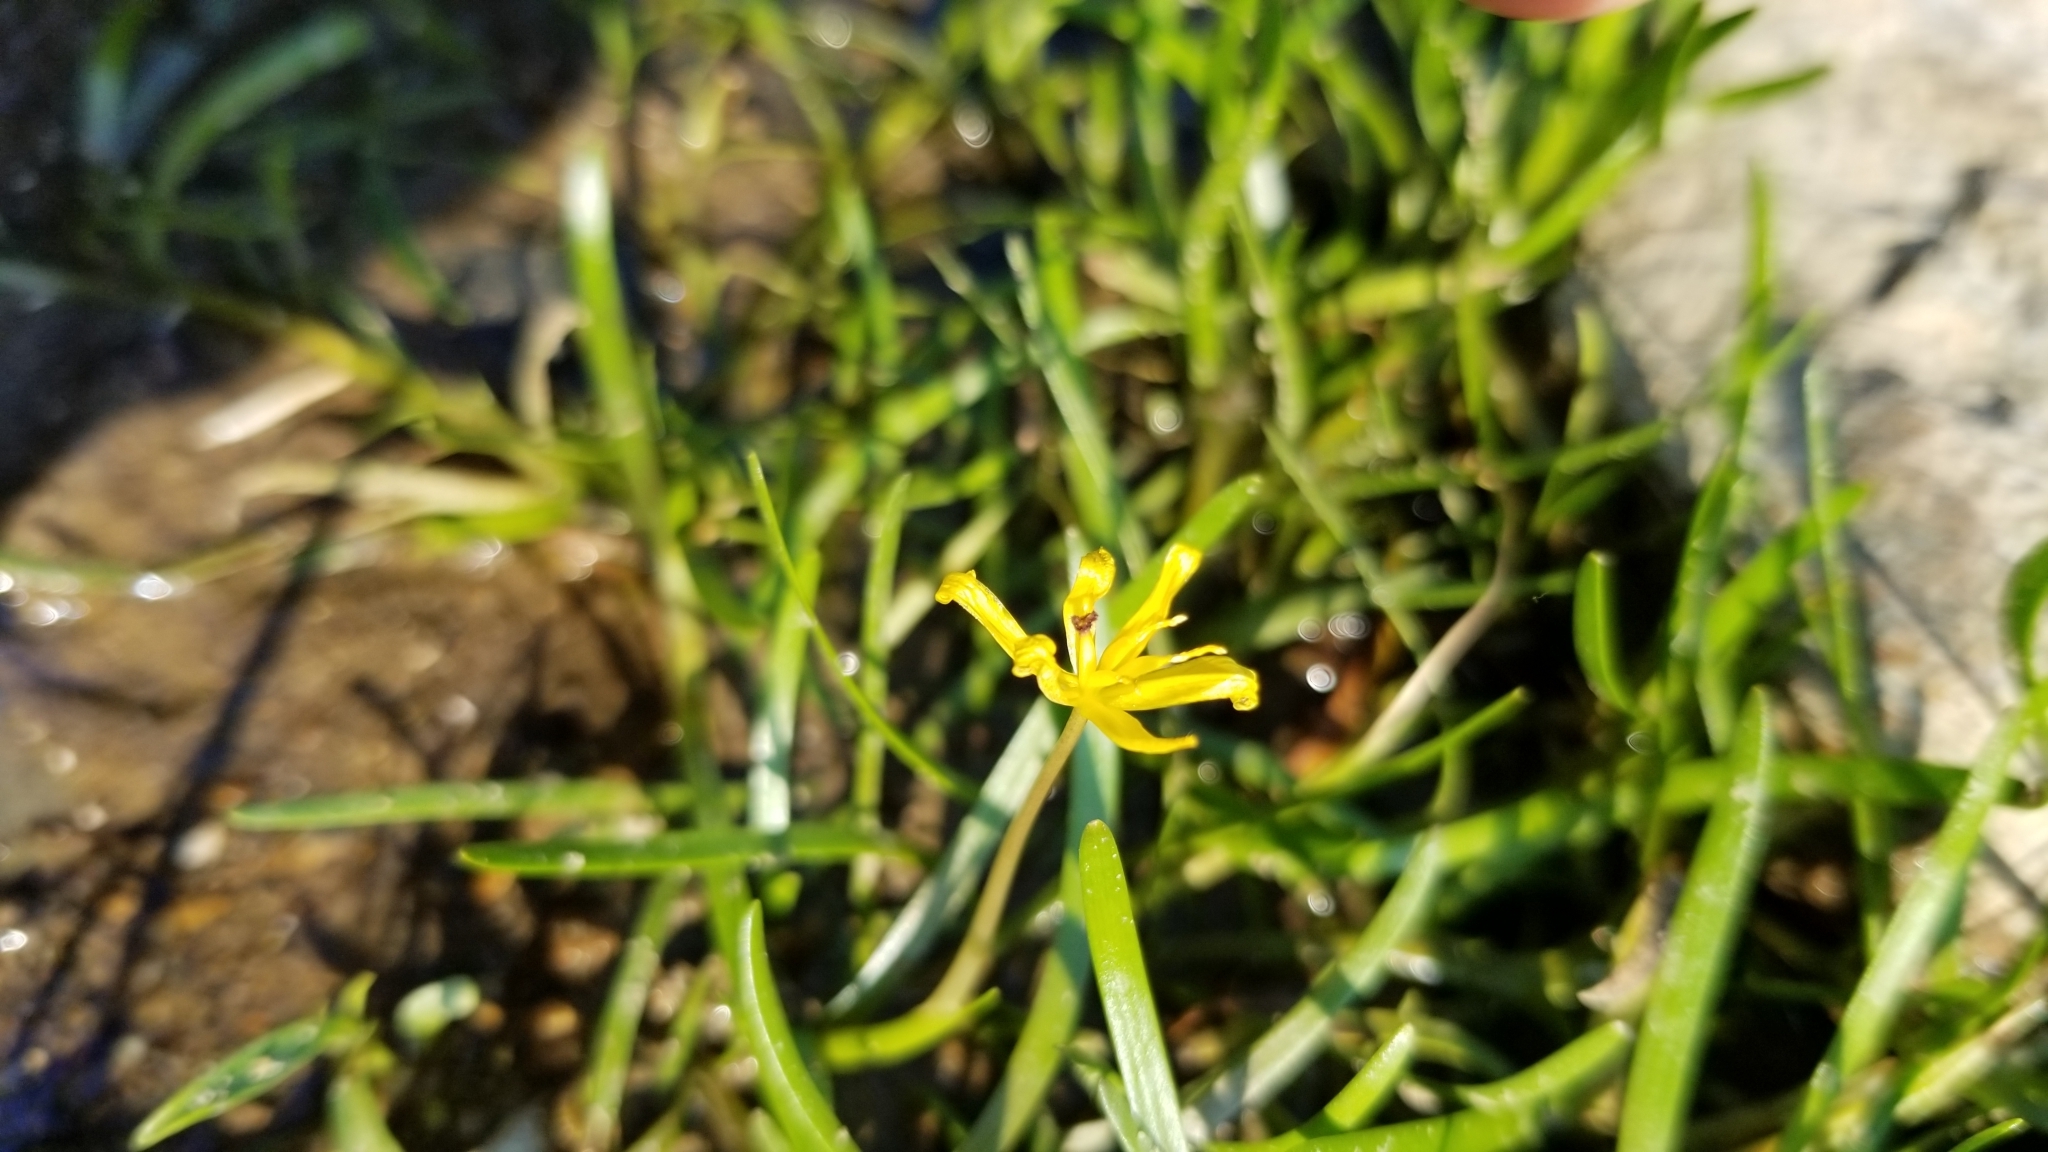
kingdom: Plantae
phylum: Tracheophyta
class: Liliopsida
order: Commelinales
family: Pontederiaceae
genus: Heteranthera
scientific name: Heteranthera dubia
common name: Grass-leaved mud plantain
